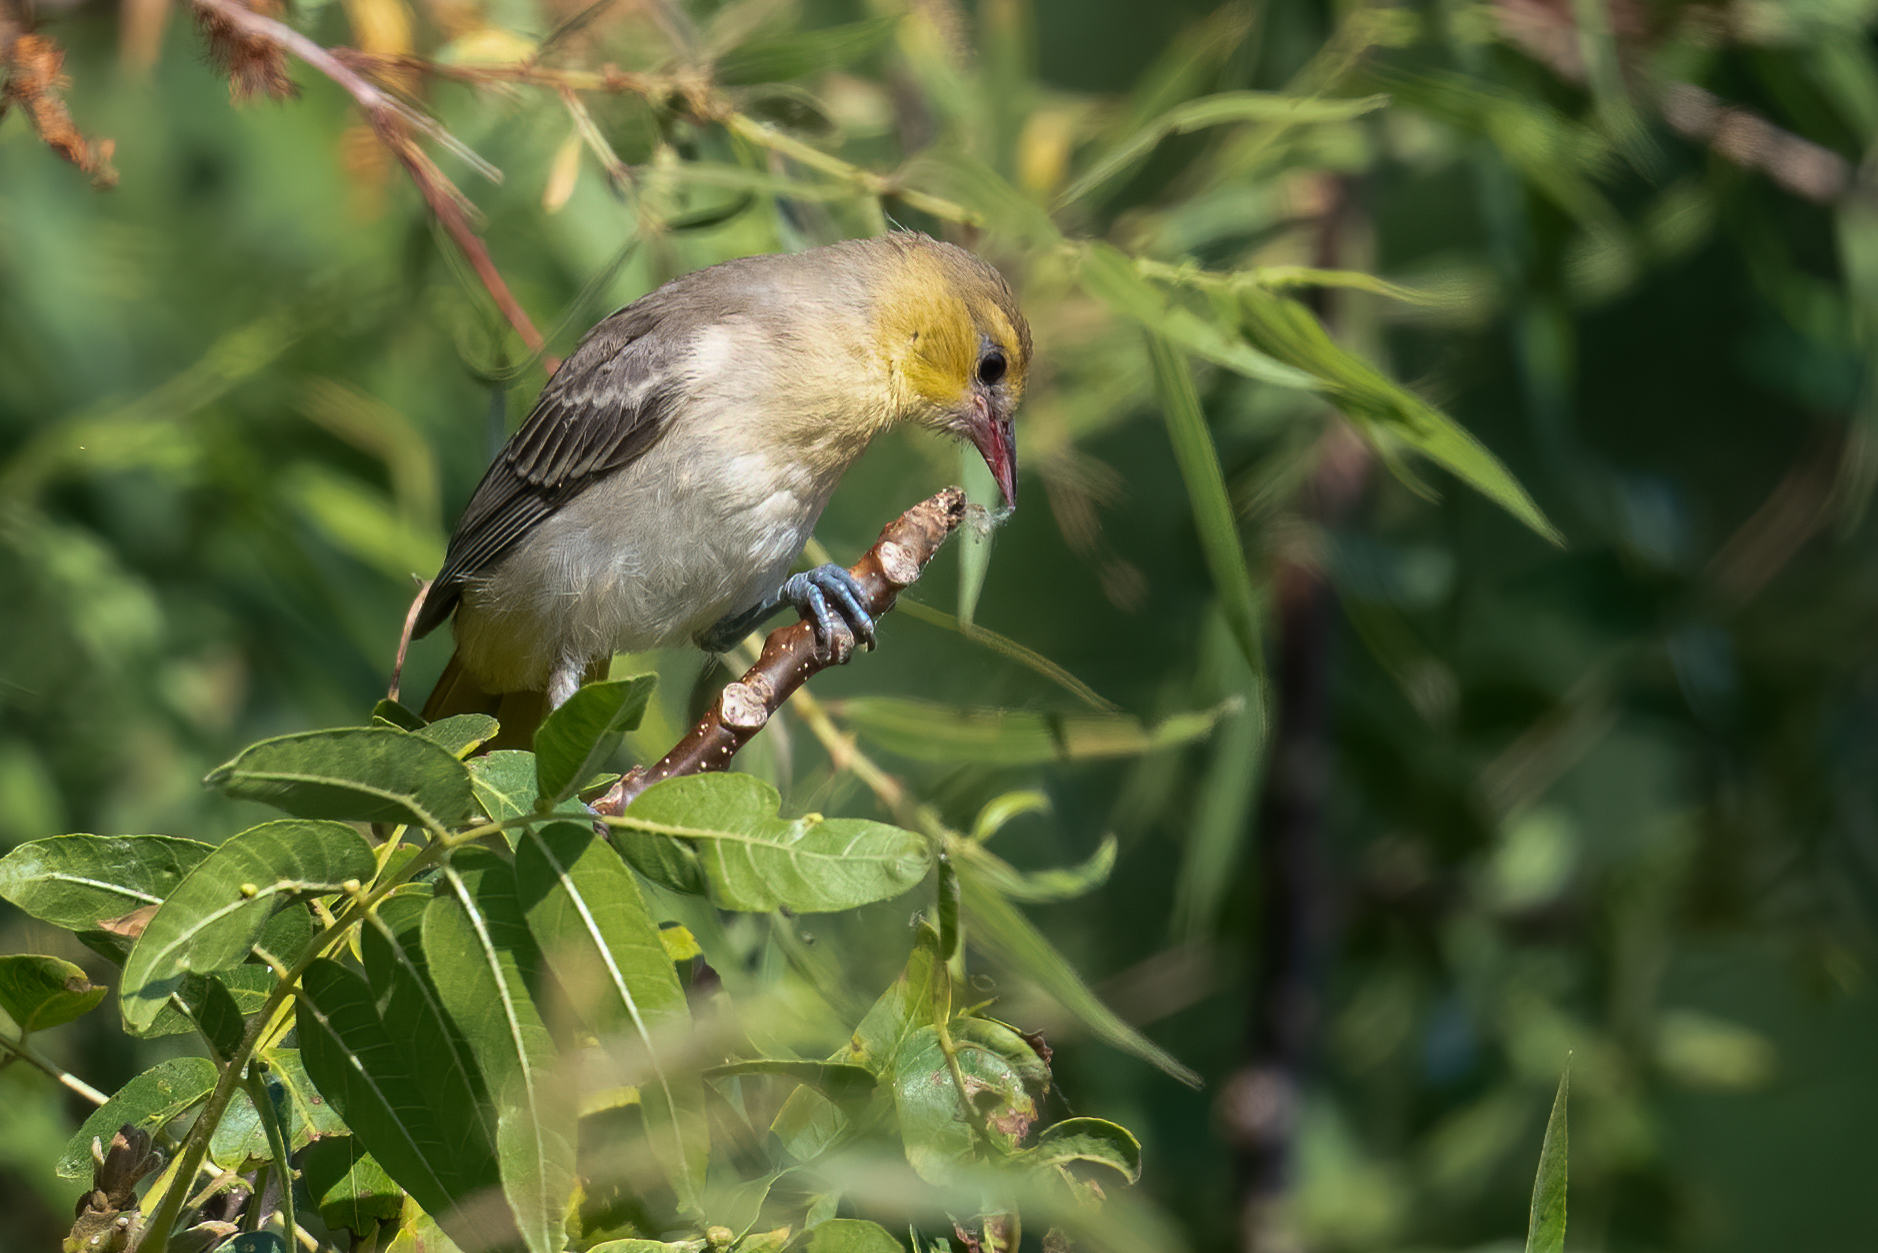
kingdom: Animalia
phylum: Chordata
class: Aves
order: Passeriformes
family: Icteridae
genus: Icterus
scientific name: Icterus bullockii
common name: Bullock's oriole
